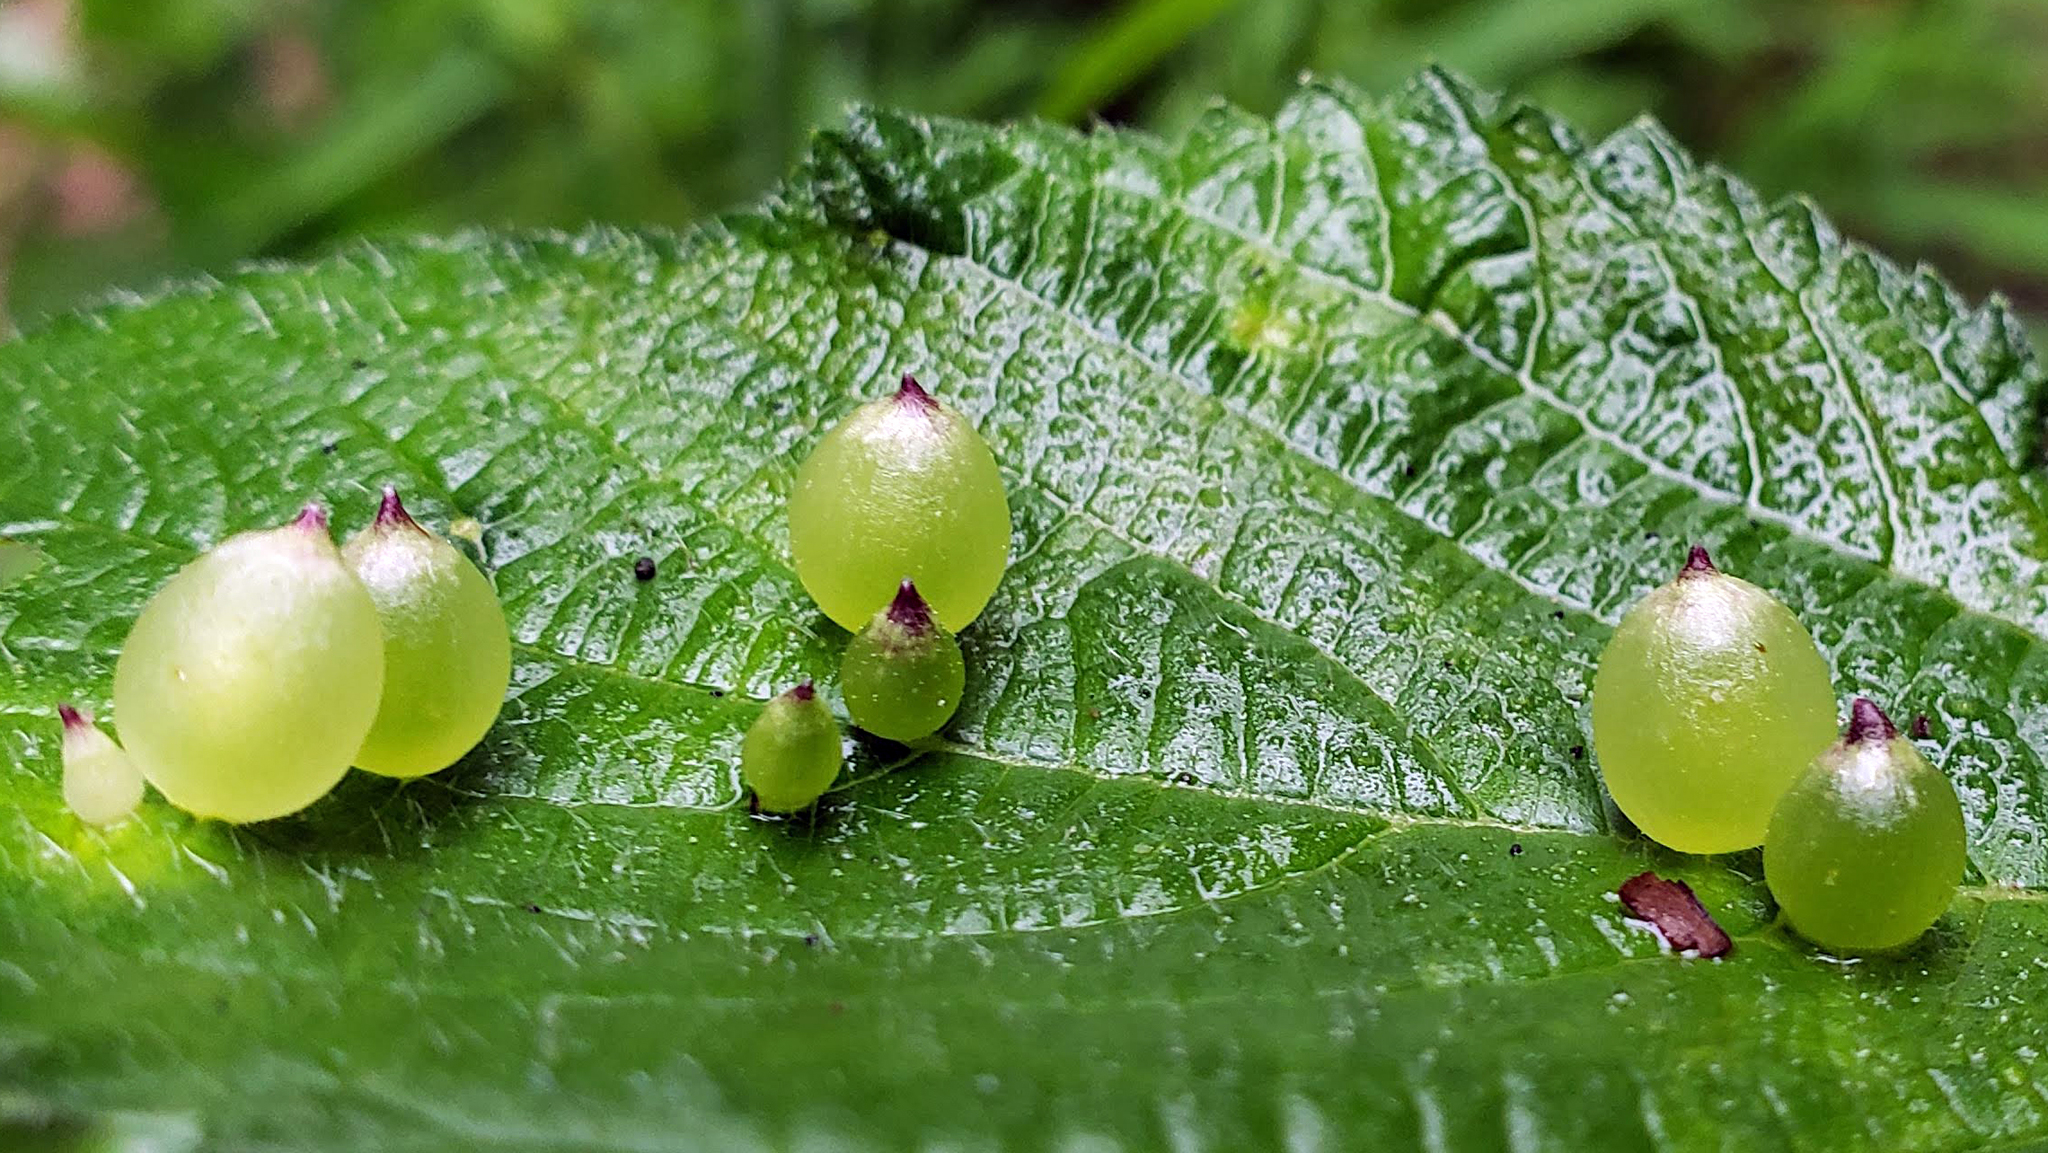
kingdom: Animalia
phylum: Arthropoda
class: Insecta
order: Diptera
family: Cecidomyiidae
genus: Dasineura
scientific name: Dasineura investita
